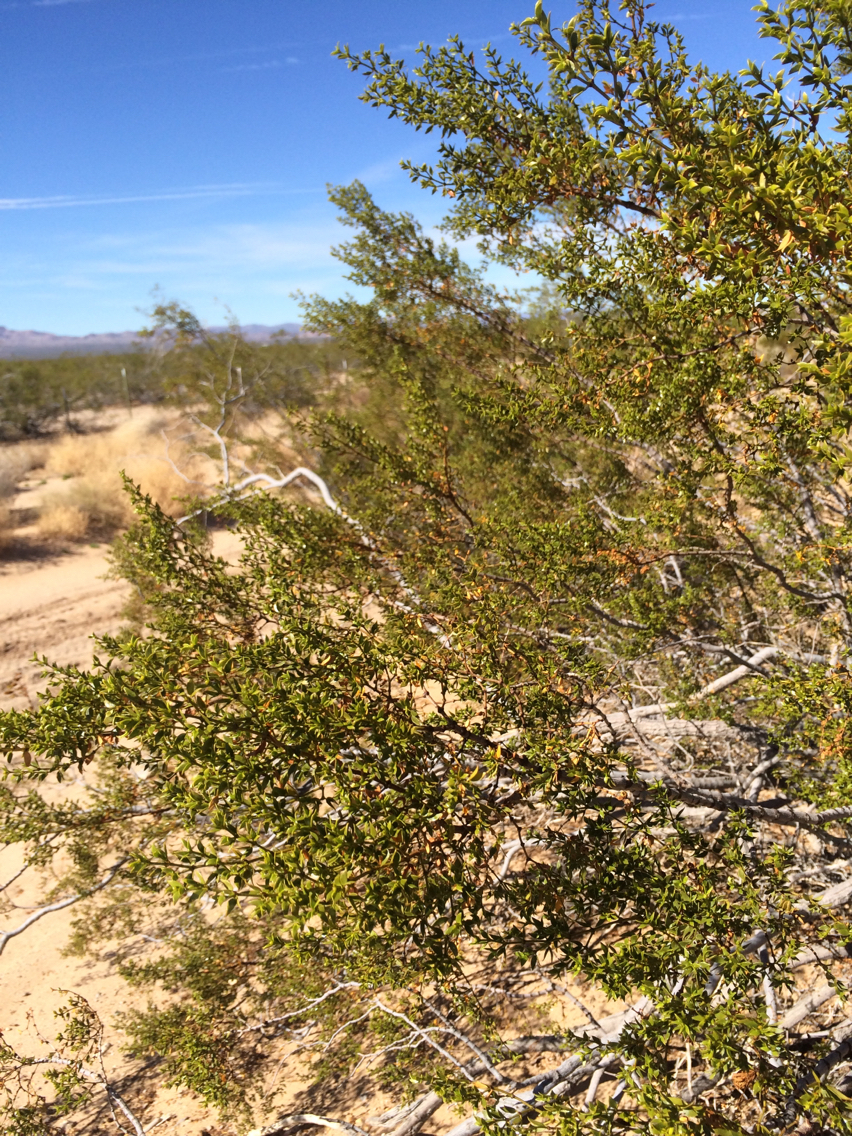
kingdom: Plantae
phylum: Tracheophyta
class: Magnoliopsida
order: Zygophyllales
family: Zygophyllaceae
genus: Larrea
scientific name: Larrea tridentata
